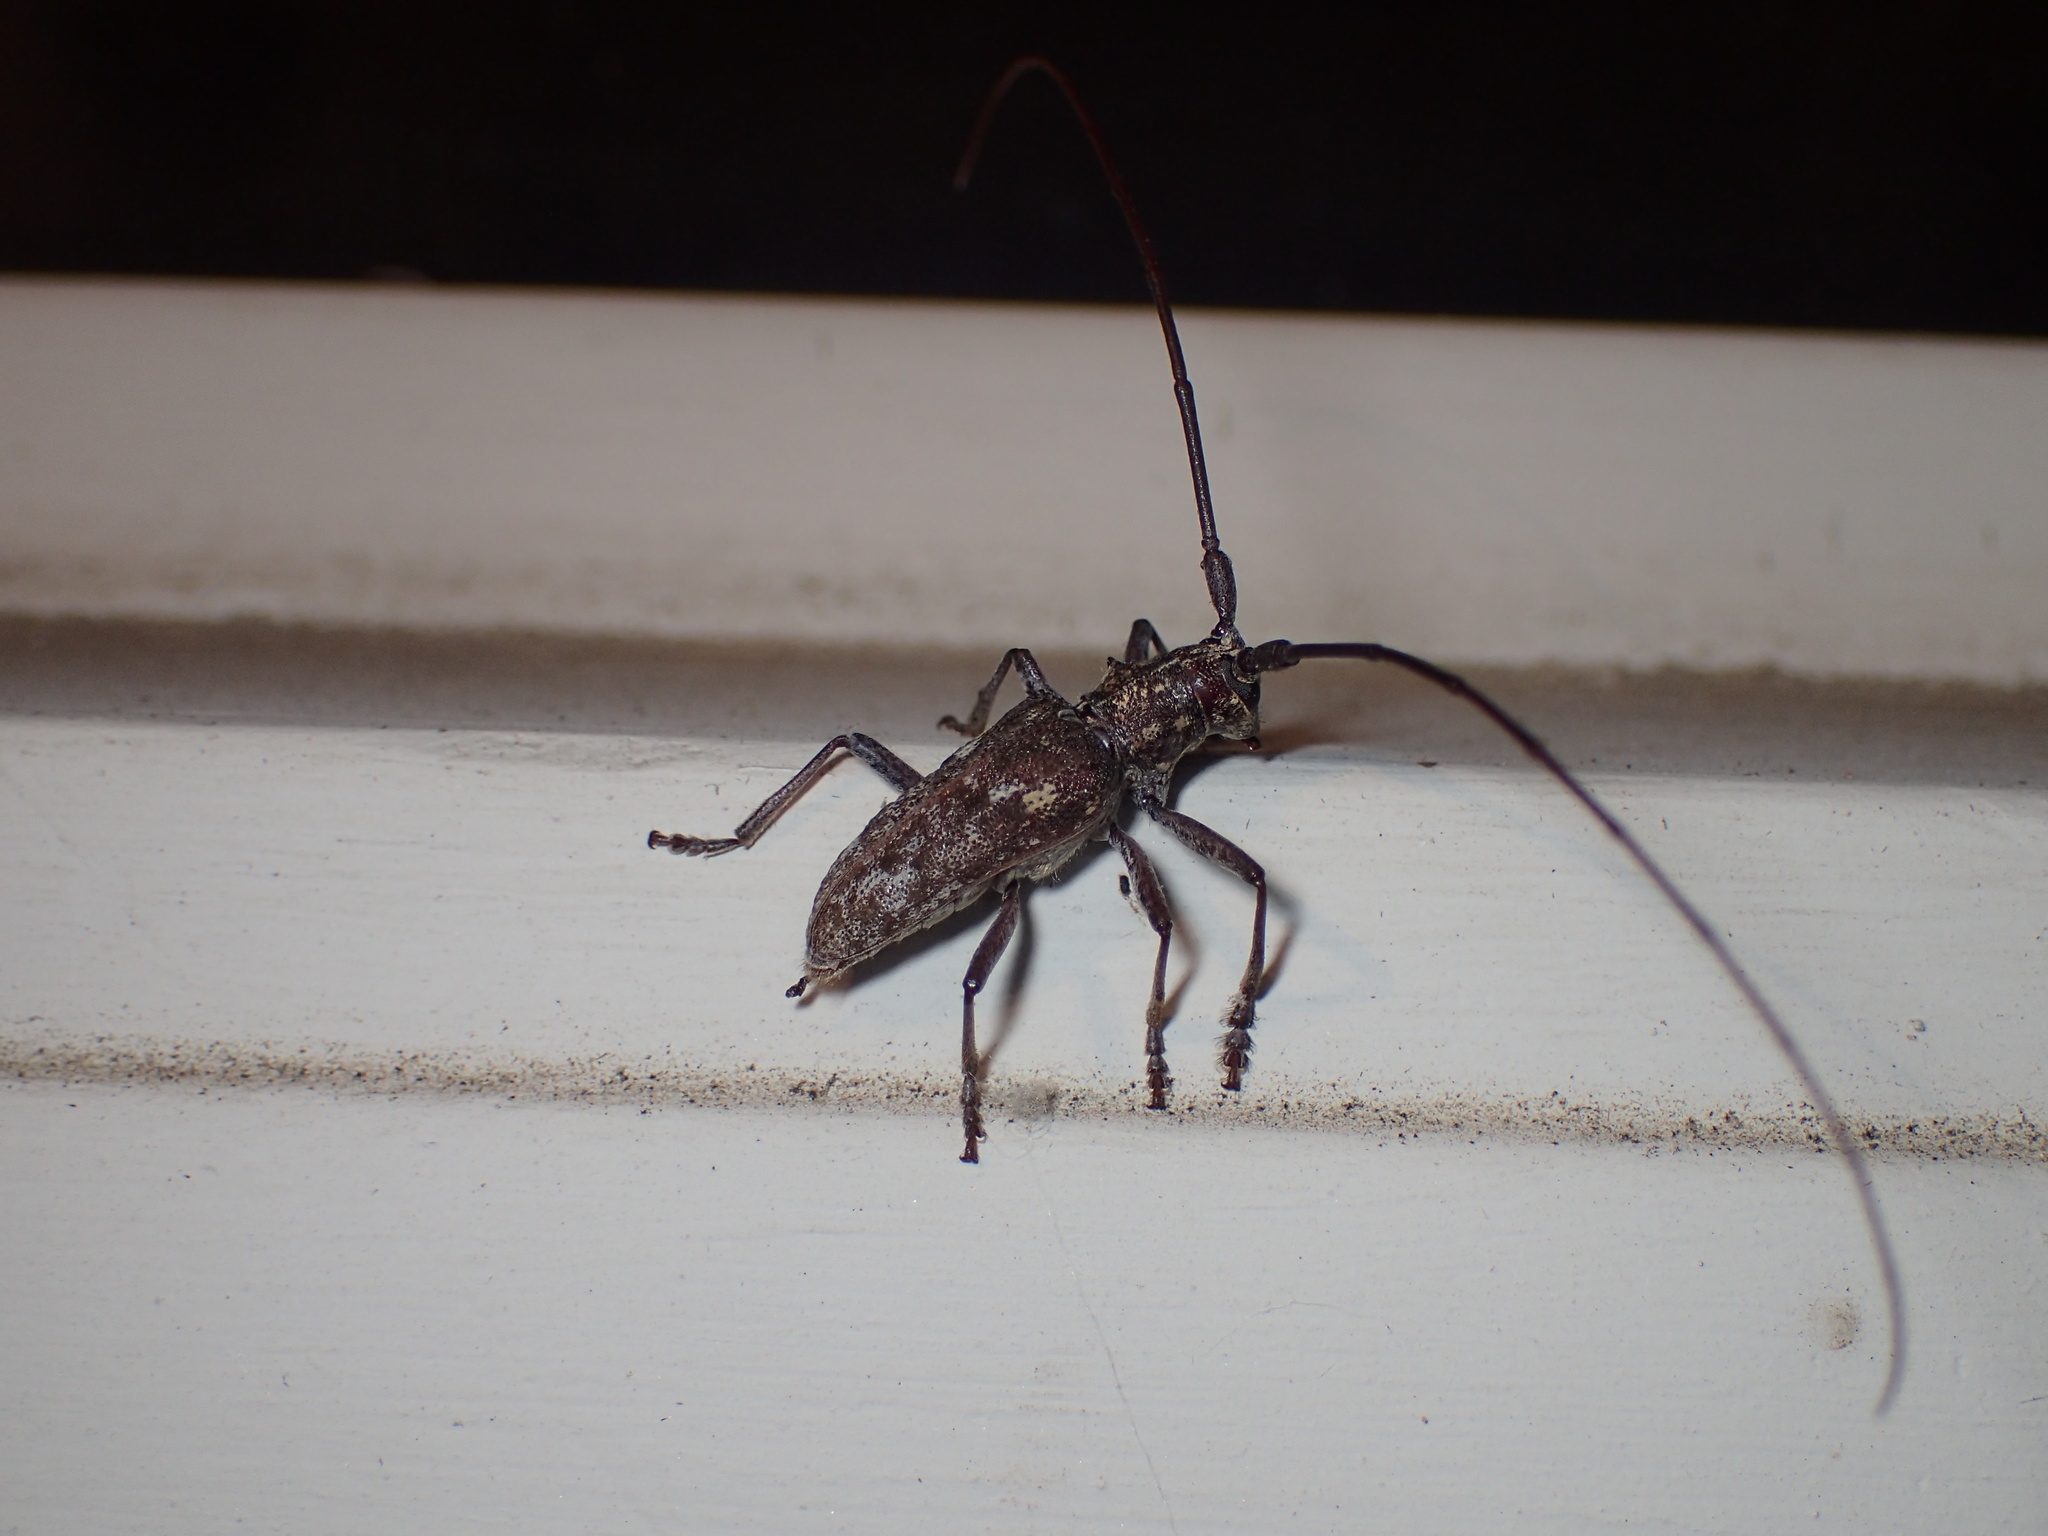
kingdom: Animalia
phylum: Arthropoda
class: Insecta
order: Coleoptera
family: Cerambycidae
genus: Monochamus
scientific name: Monochamus carolinensis
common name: Carolina pine sawyer
